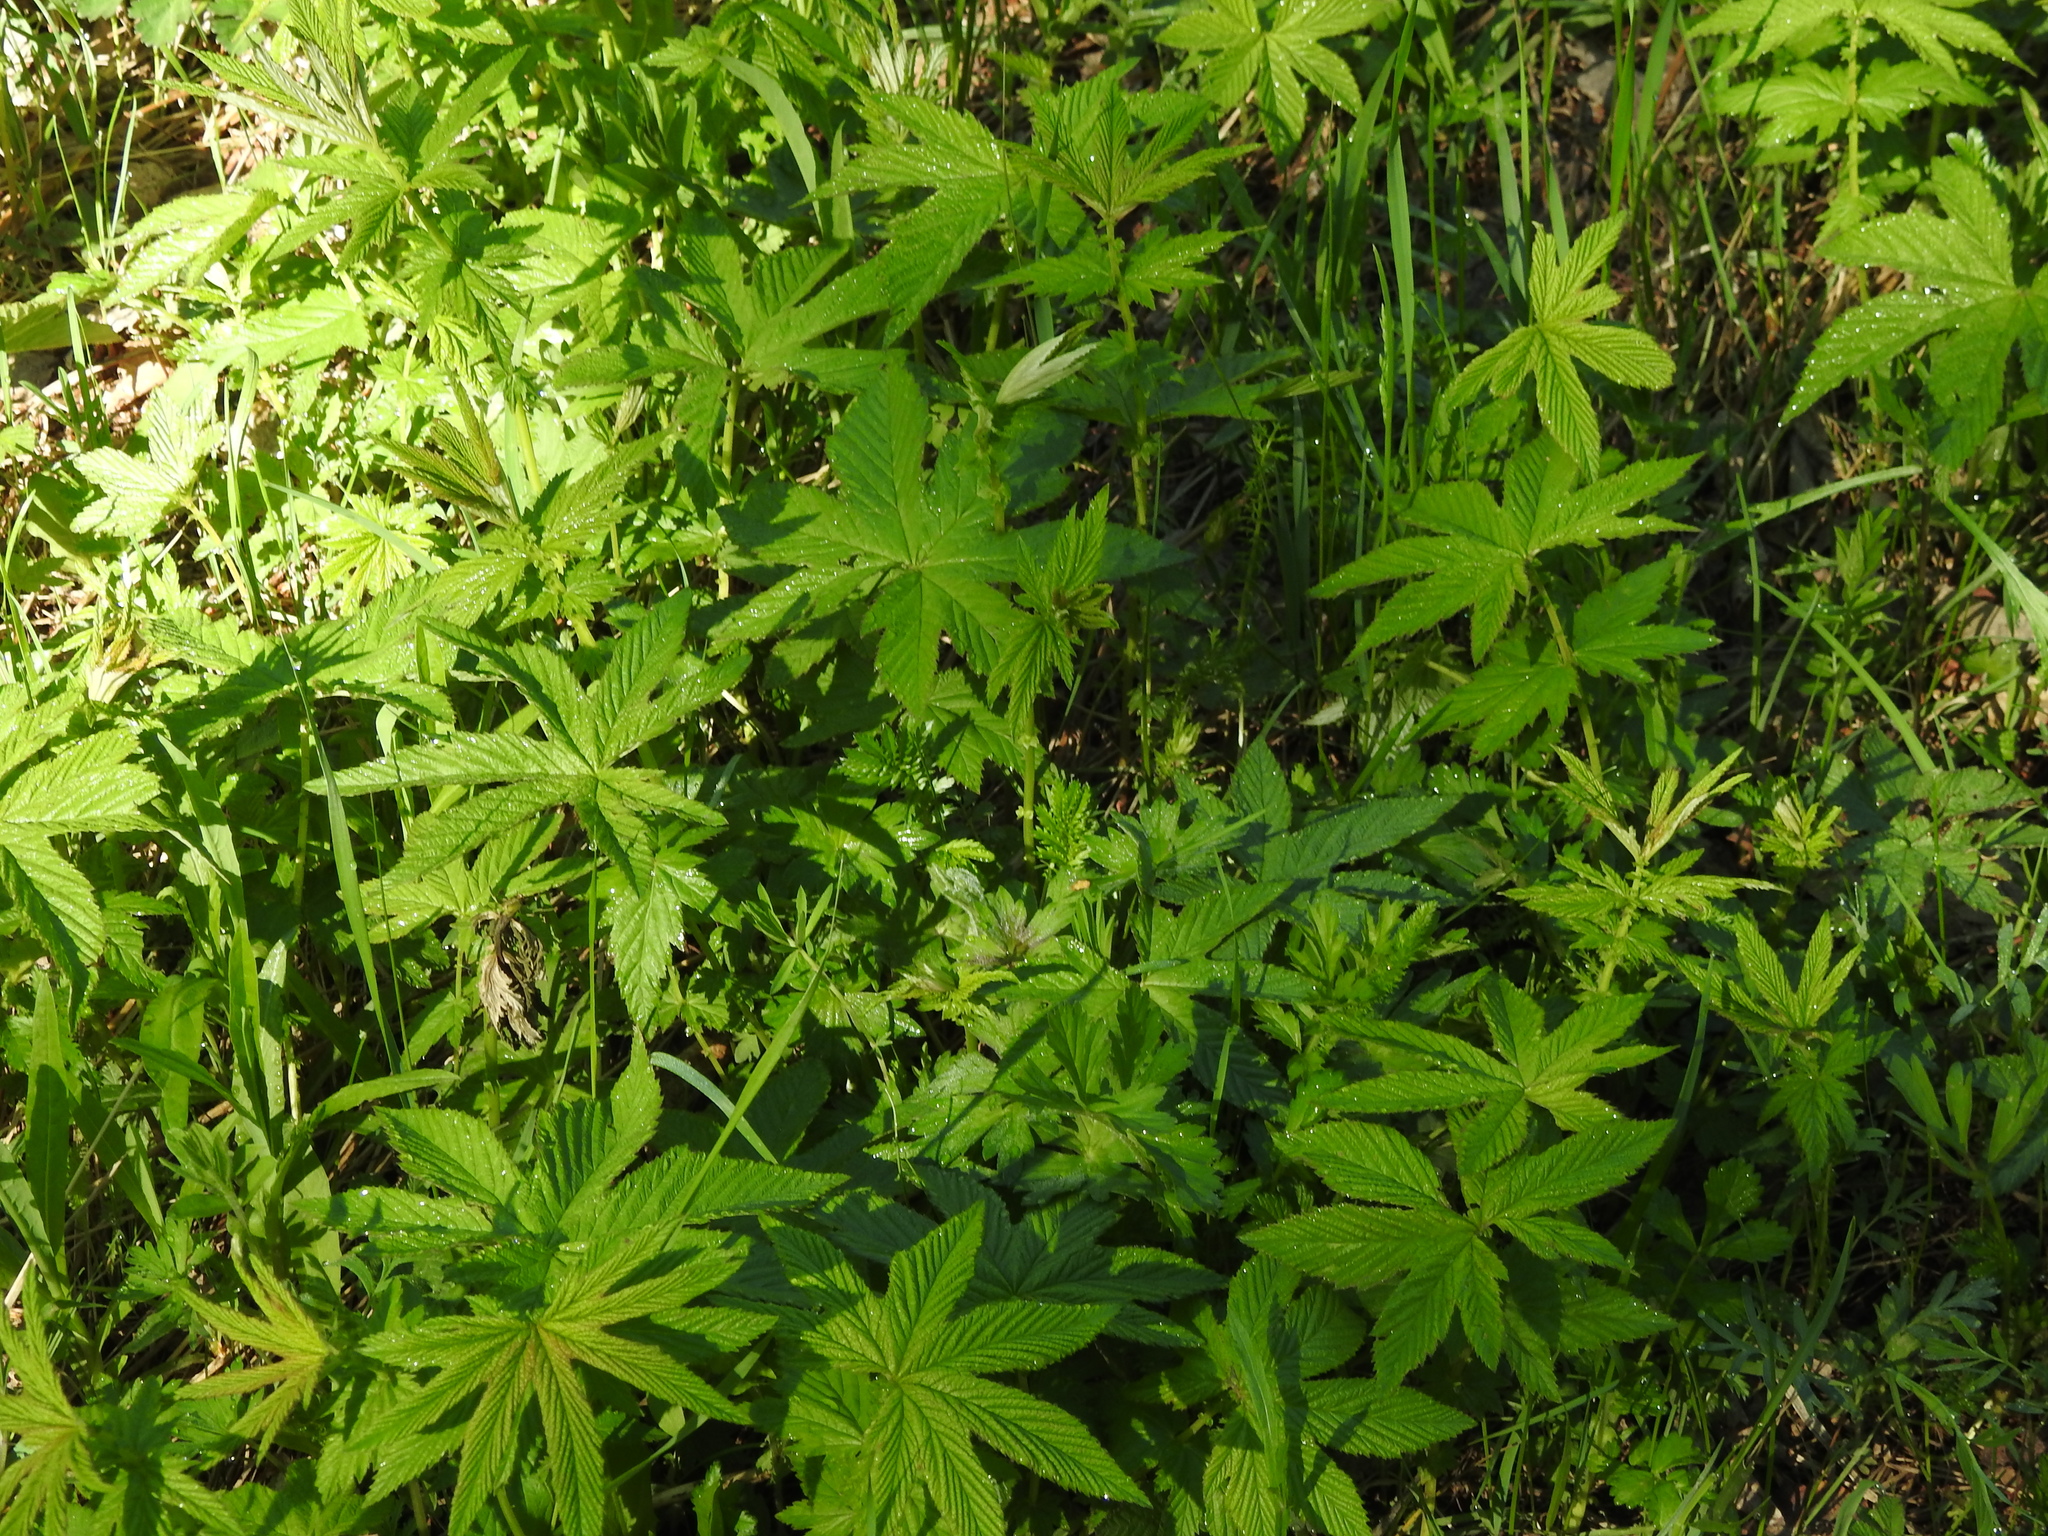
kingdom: Plantae
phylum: Tracheophyta
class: Magnoliopsida
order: Rosales
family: Rosaceae
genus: Filipendula
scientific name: Filipendula digitata
